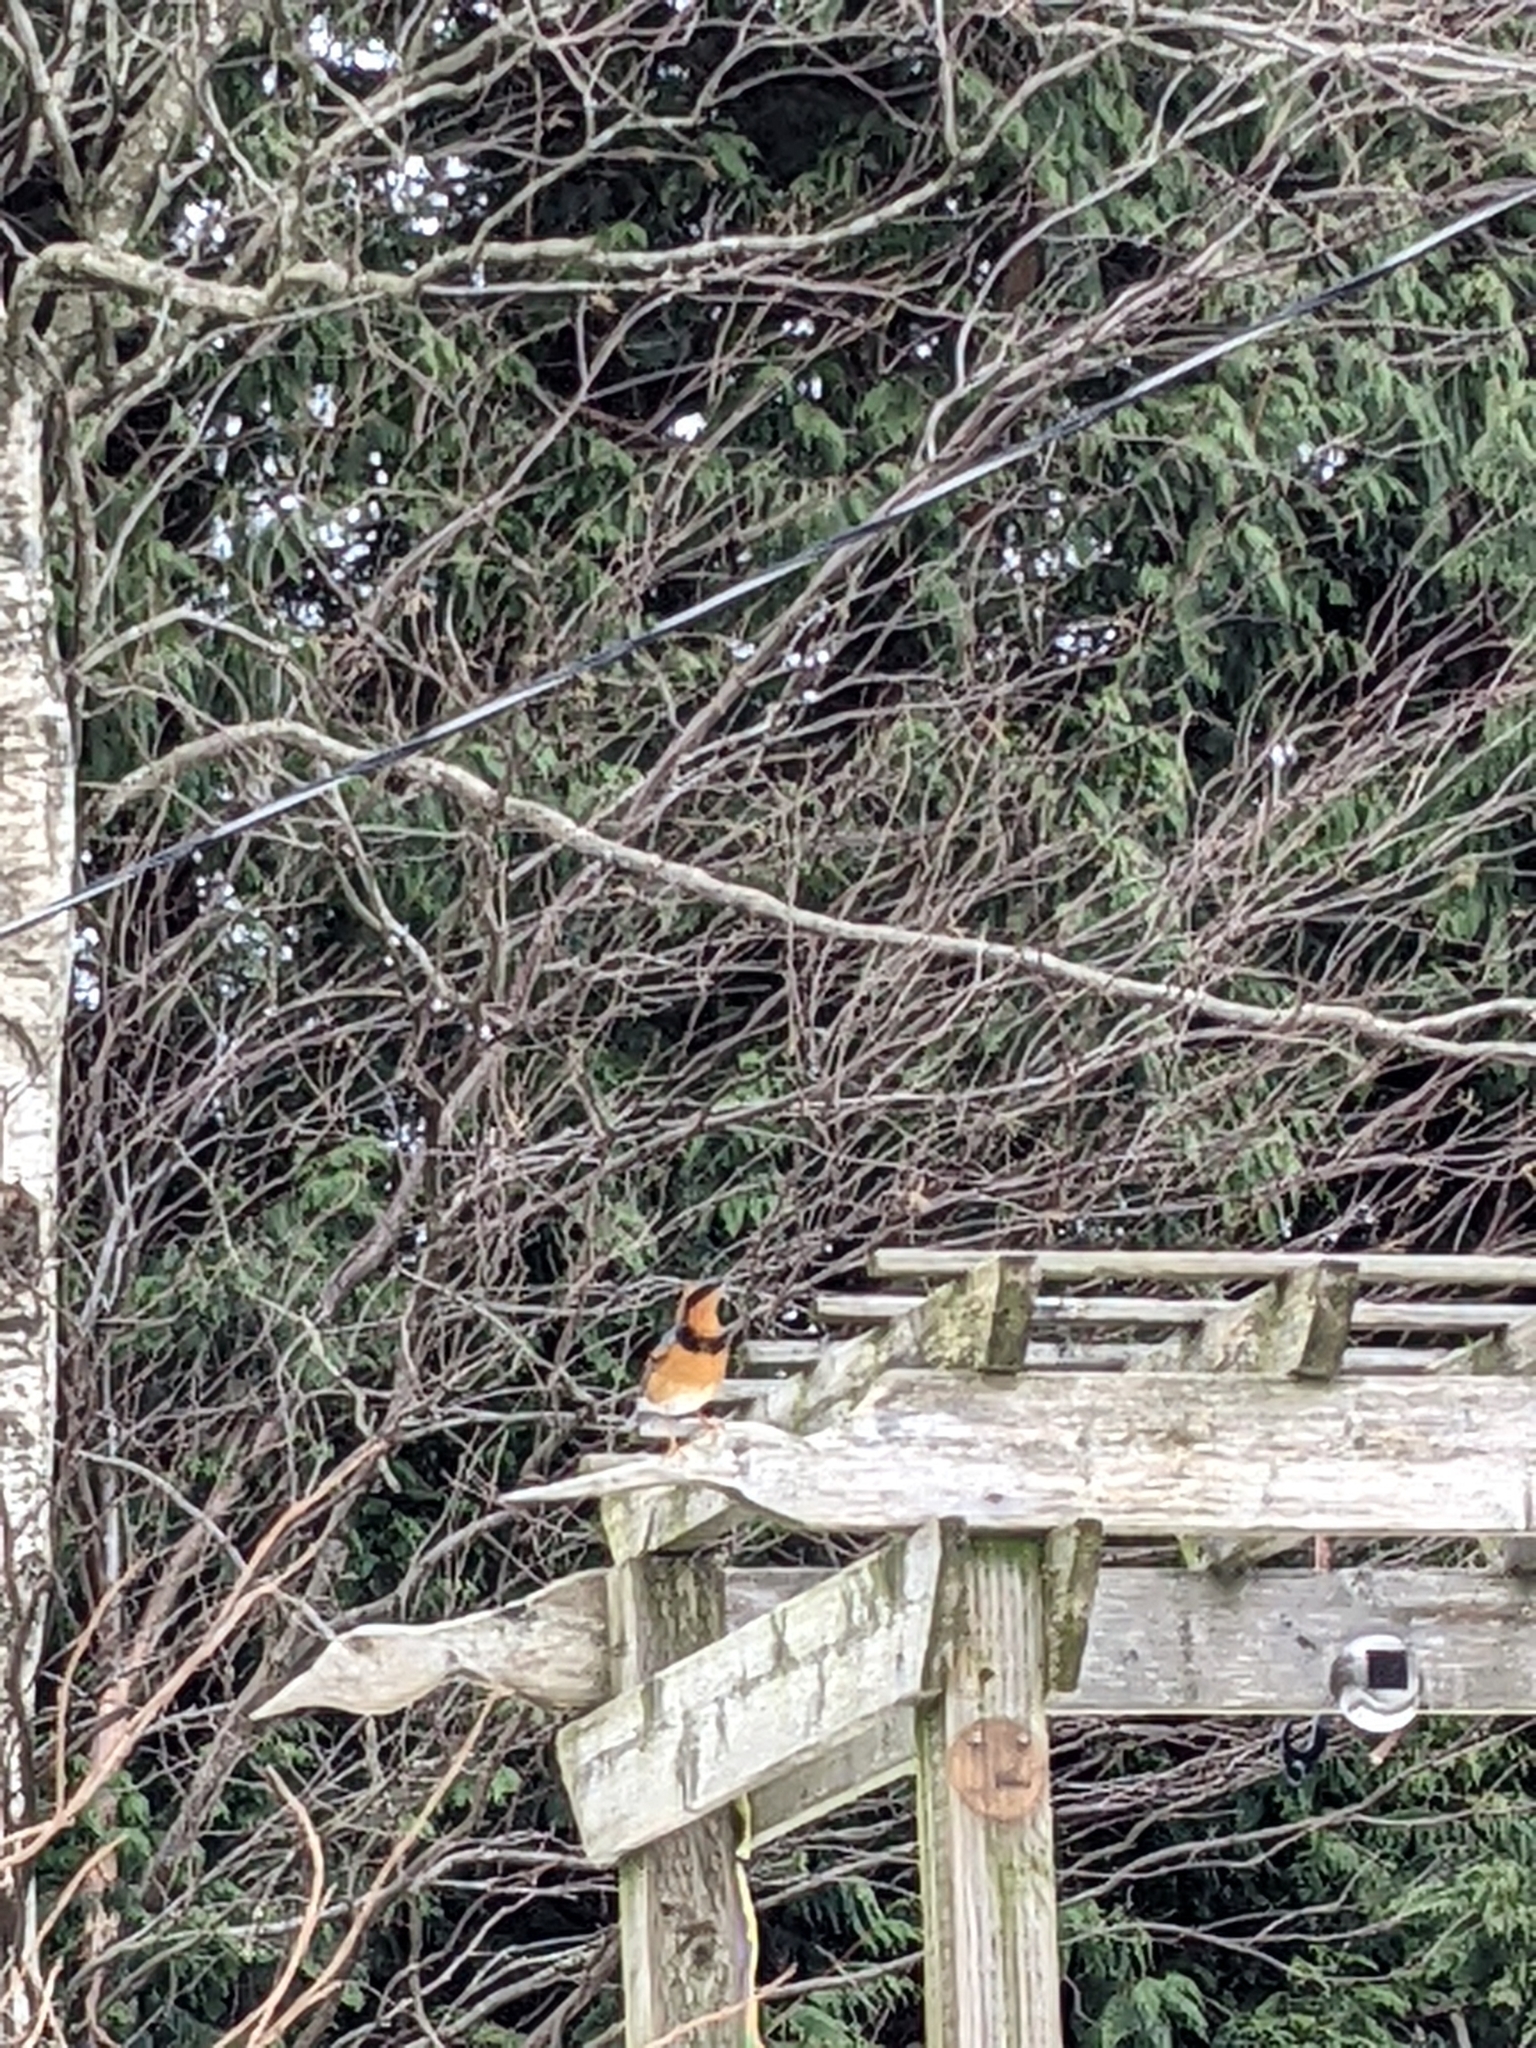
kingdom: Animalia
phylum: Chordata
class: Aves
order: Passeriformes
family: Turdidae
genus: Ixoreus
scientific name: Ixoreus naevius
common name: Varied thrush
